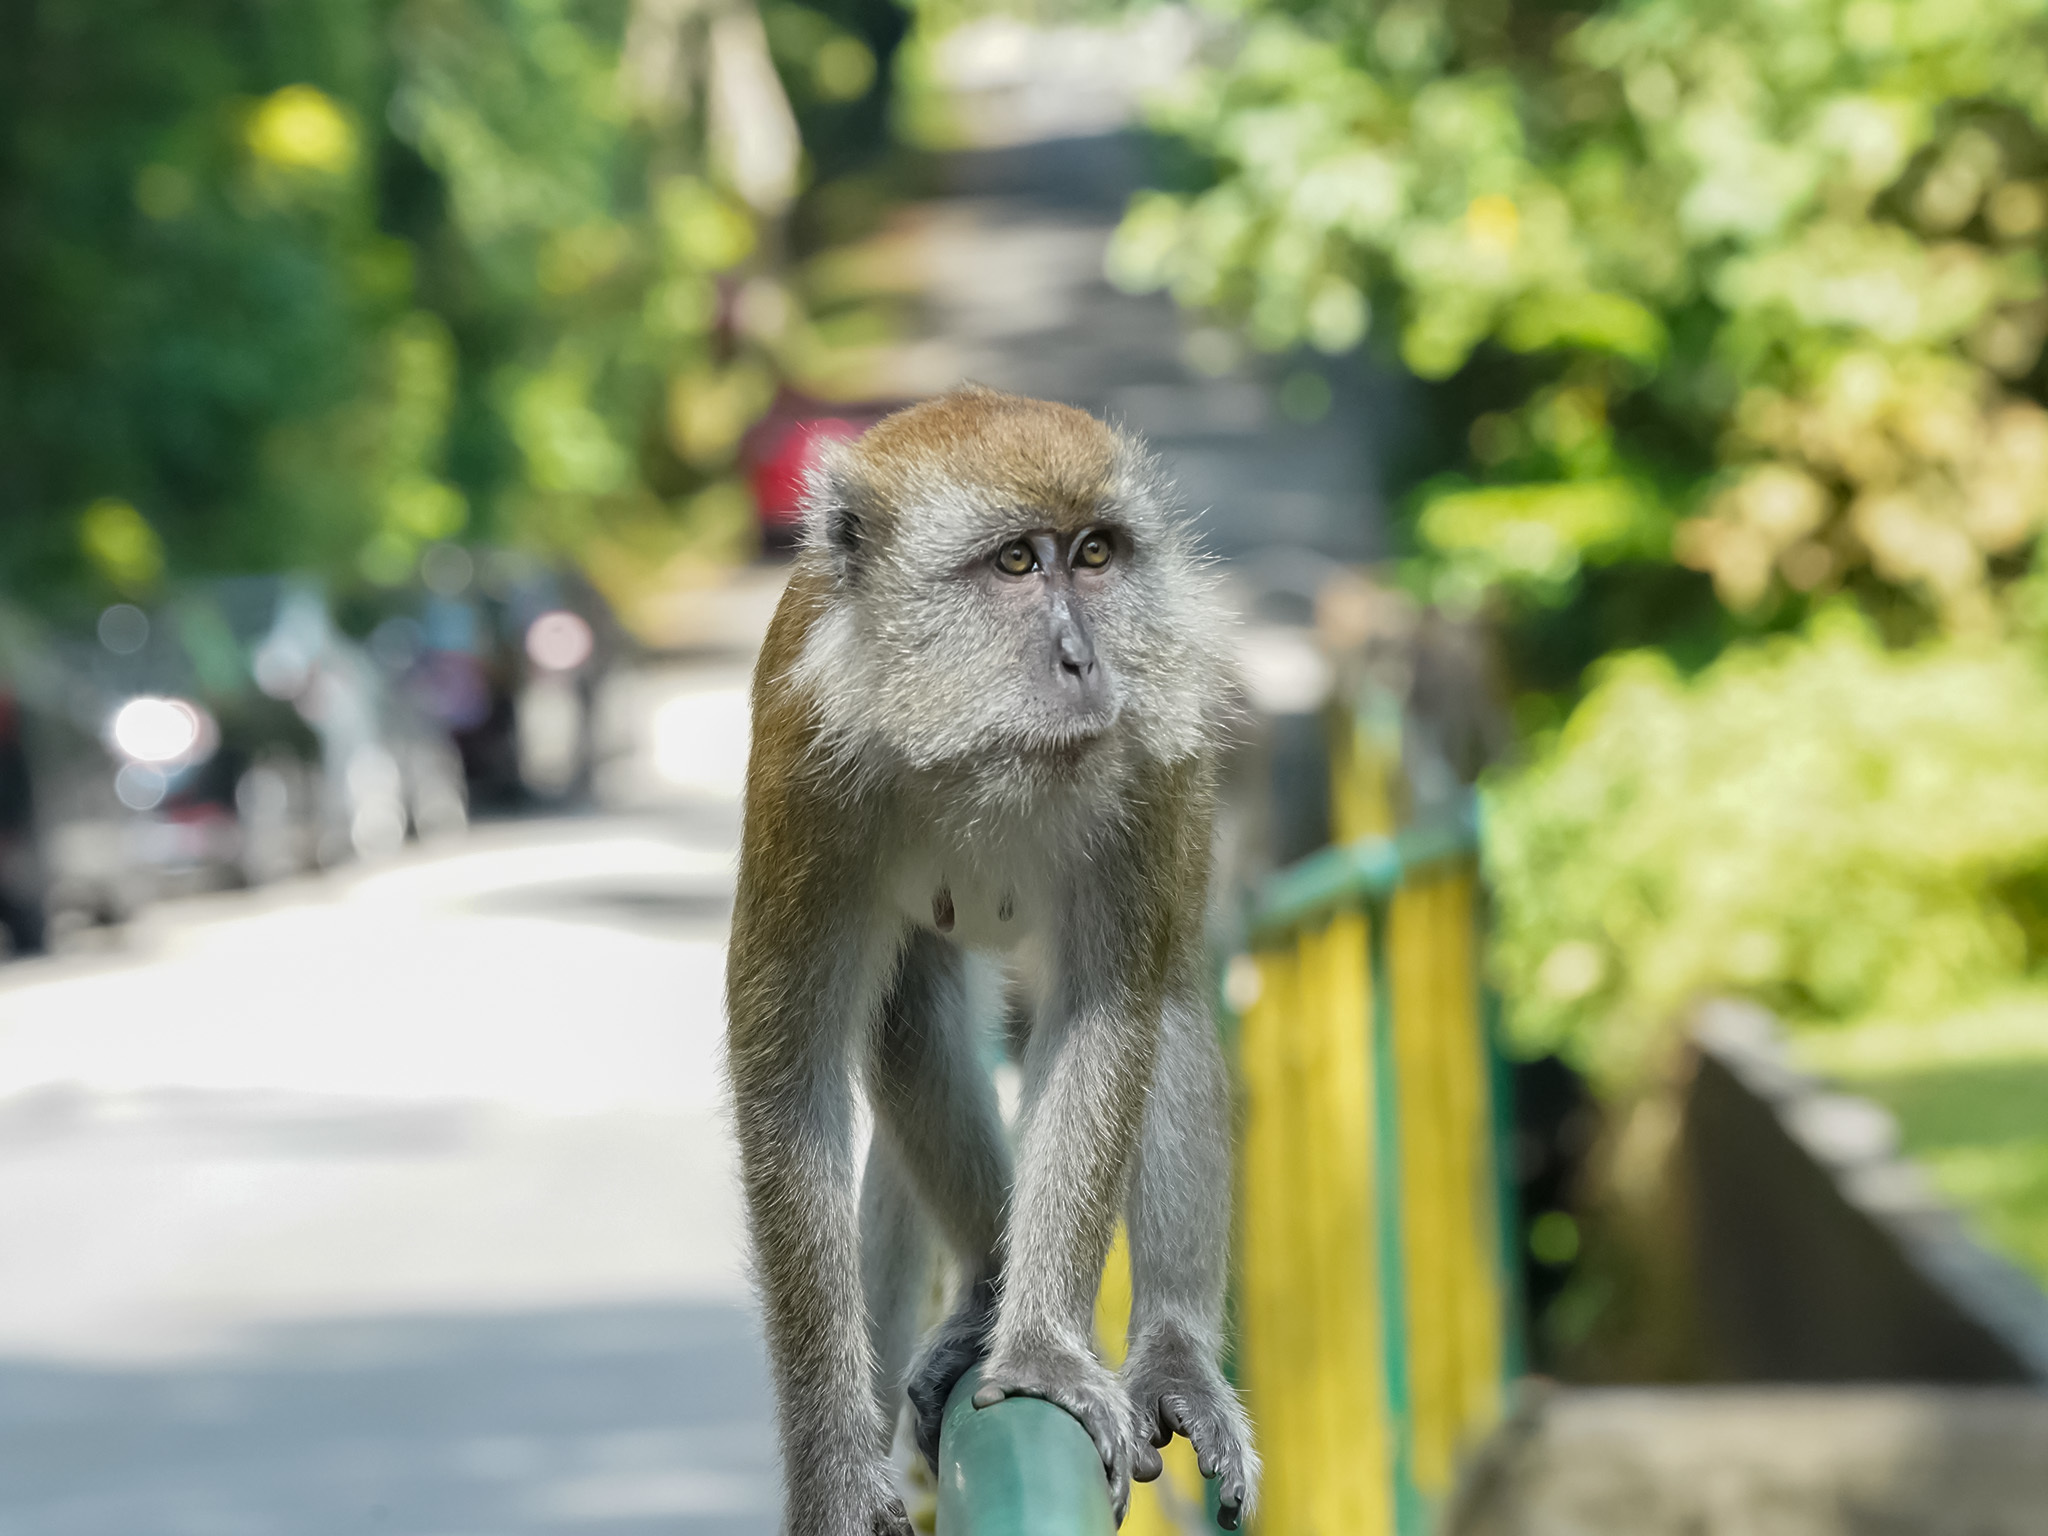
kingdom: Animalia
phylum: Chordata
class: Mammalia
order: Primates
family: Cercopithecidae
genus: Macaca
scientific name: Macaca fascicularis
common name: Crab-eating macaque
